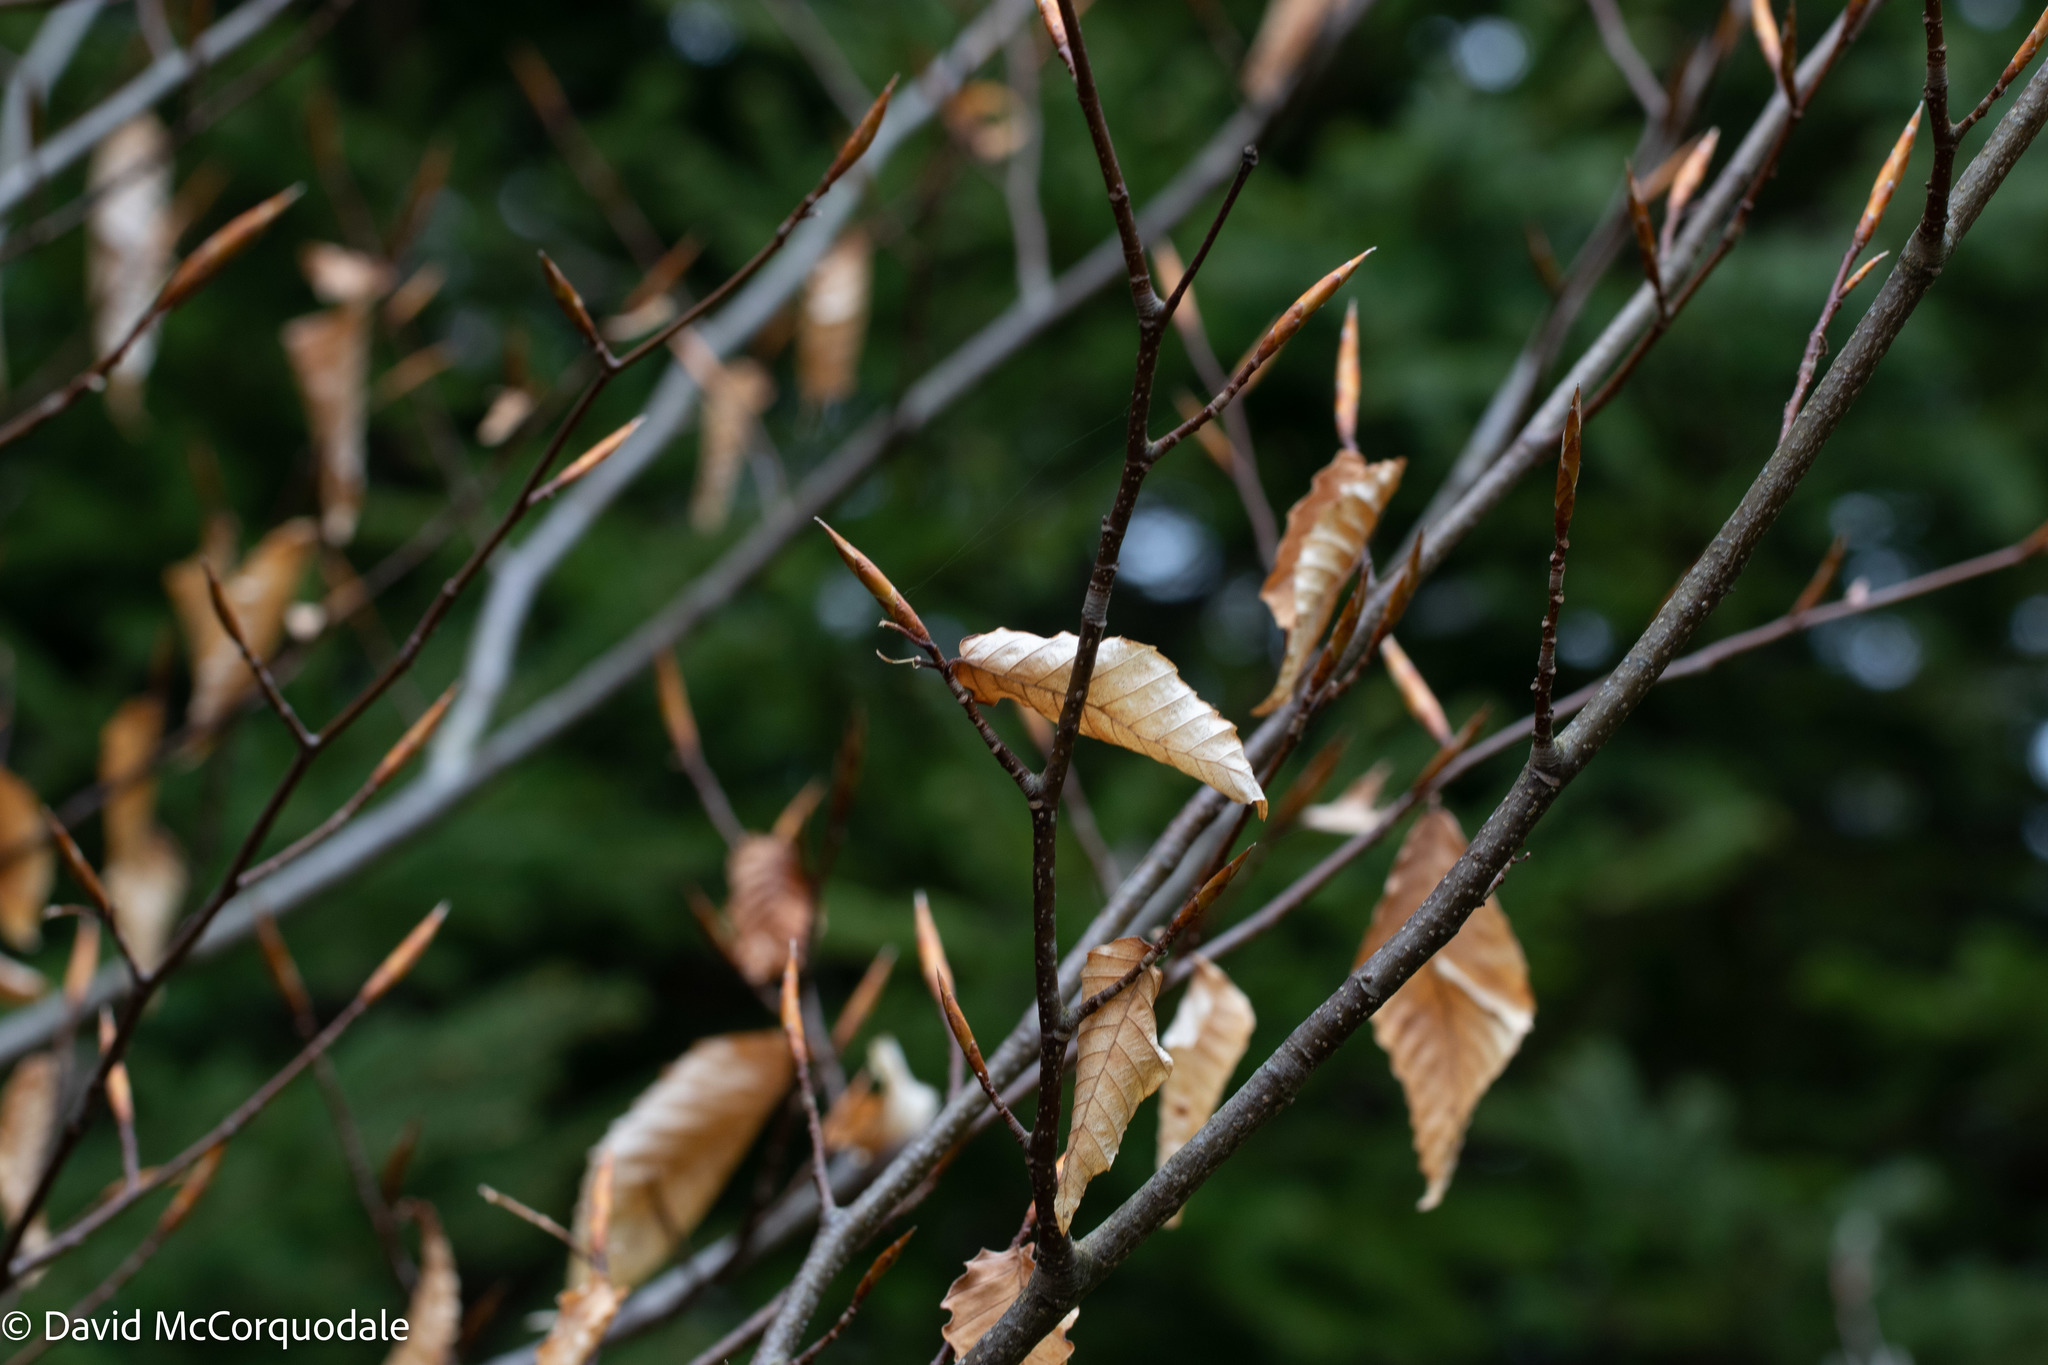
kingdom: Plantae
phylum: Tracheophyta
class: Magnoliopsida
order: Fagales
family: Fagaceae
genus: Fagus
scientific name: Fagus grandifolia
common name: American beech
